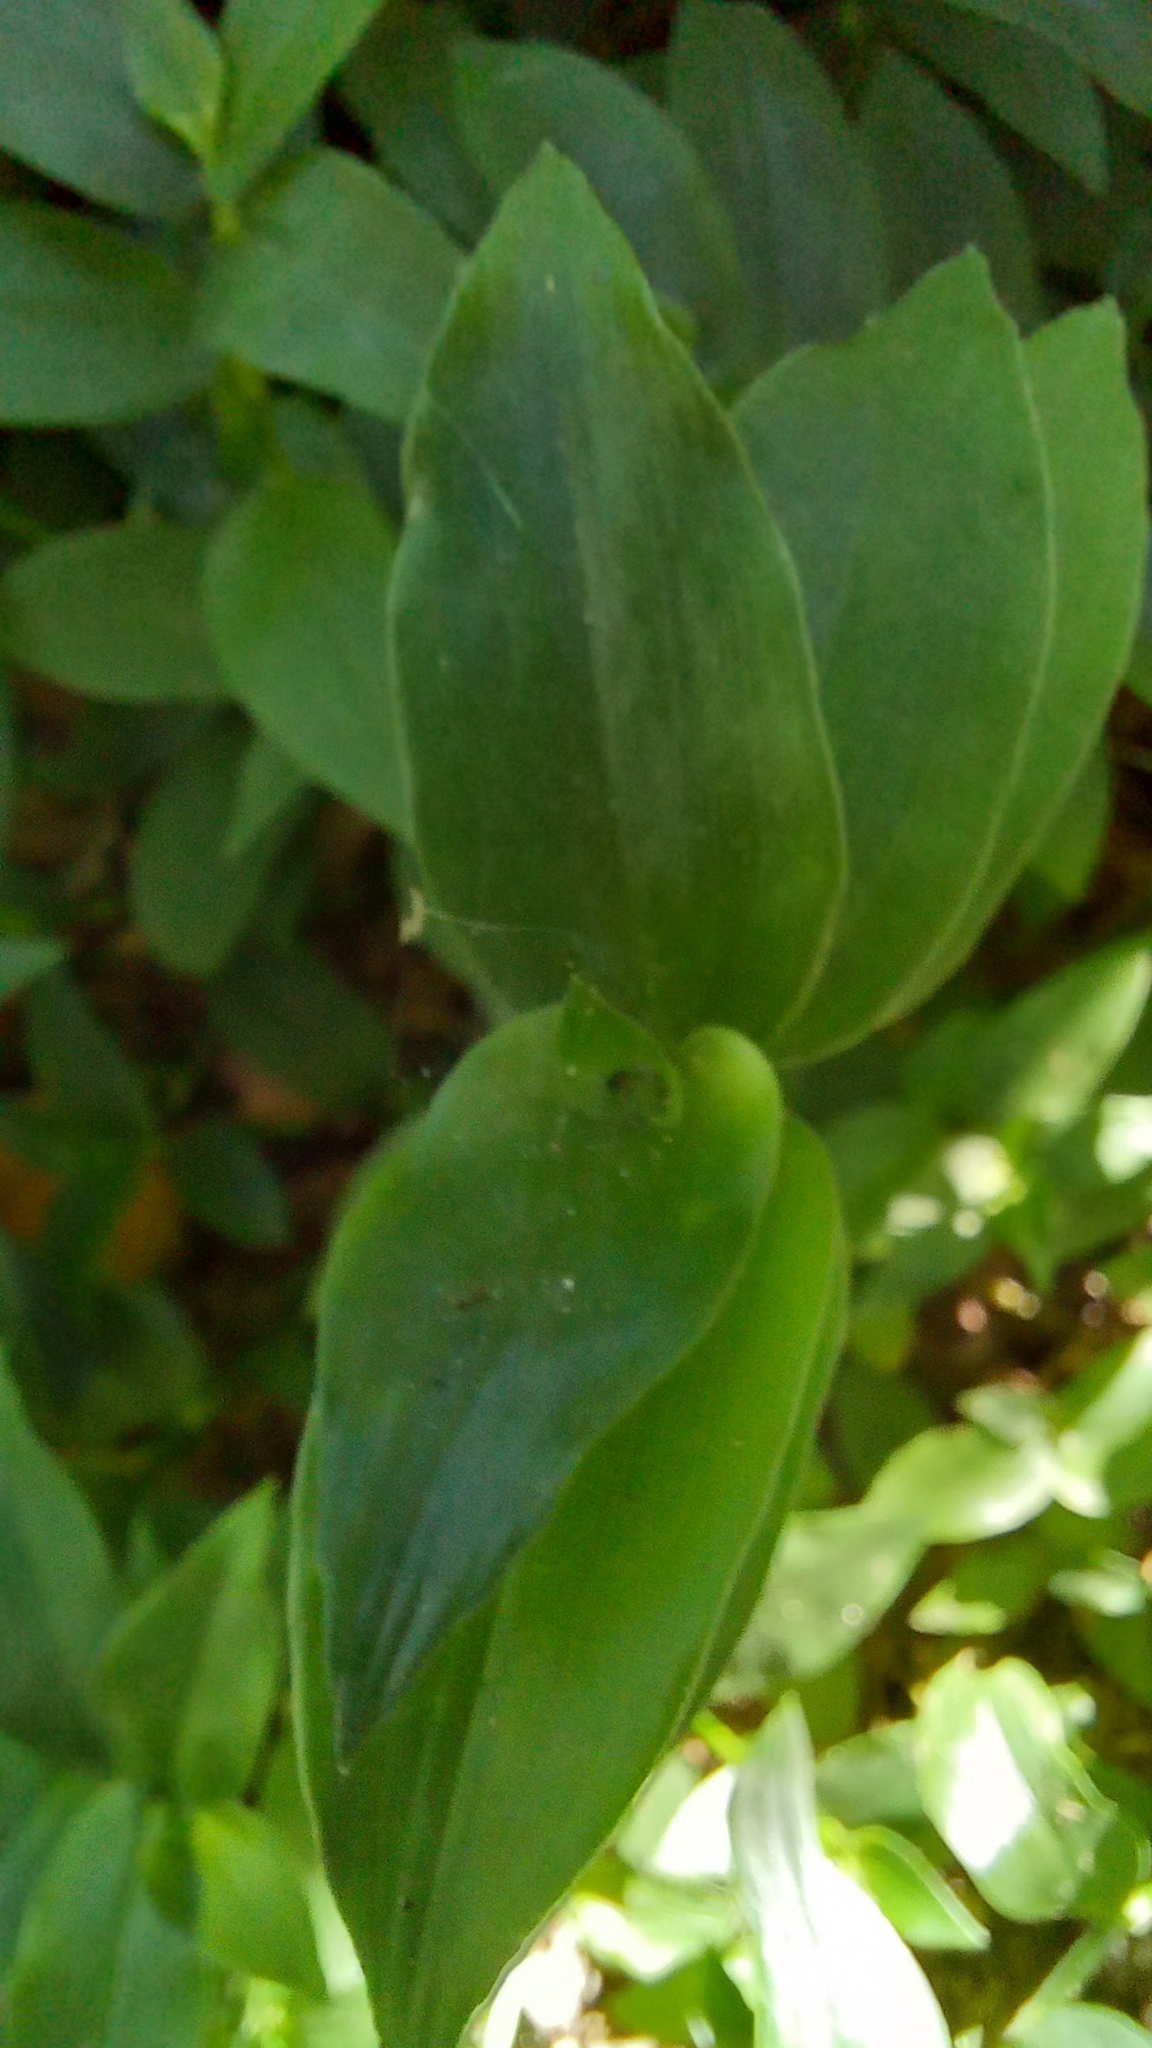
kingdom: Plantae
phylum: Tracheophyta
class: Liliopsida
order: Commelinales
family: Commelinaceae
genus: Tradescantia
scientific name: Tradescantia fluminensis
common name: Wandering-jew
